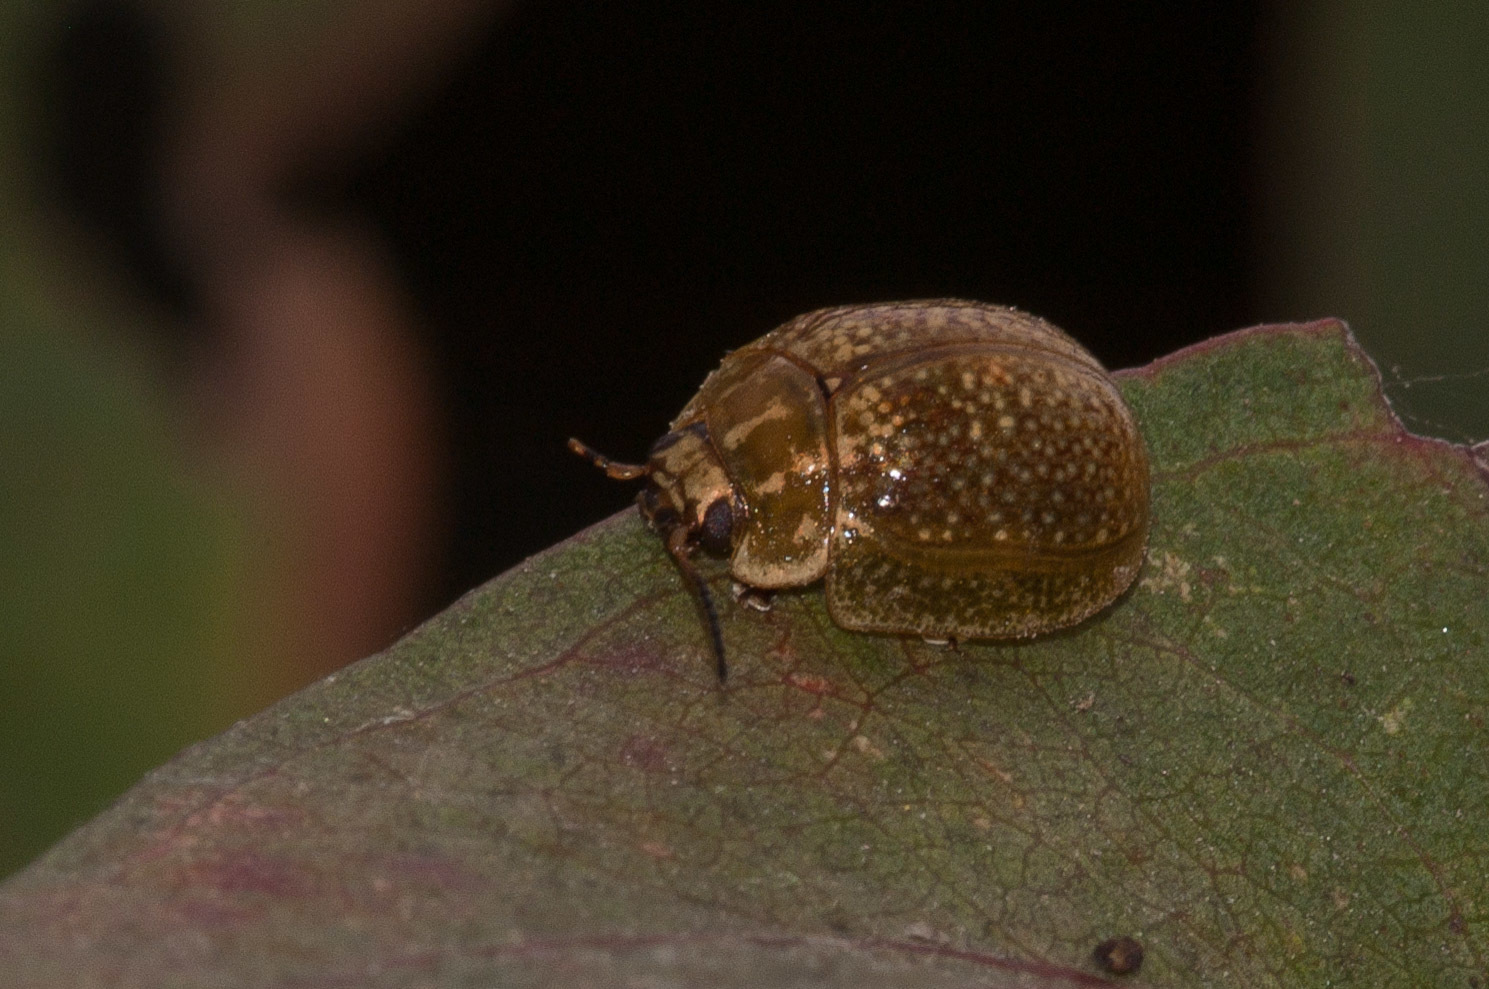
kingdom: Animalia
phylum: Arthropoda
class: Insecta
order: Coleoptera
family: Chrysomelidae
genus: Paropsisterna
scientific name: Paropsisterna cloelia
